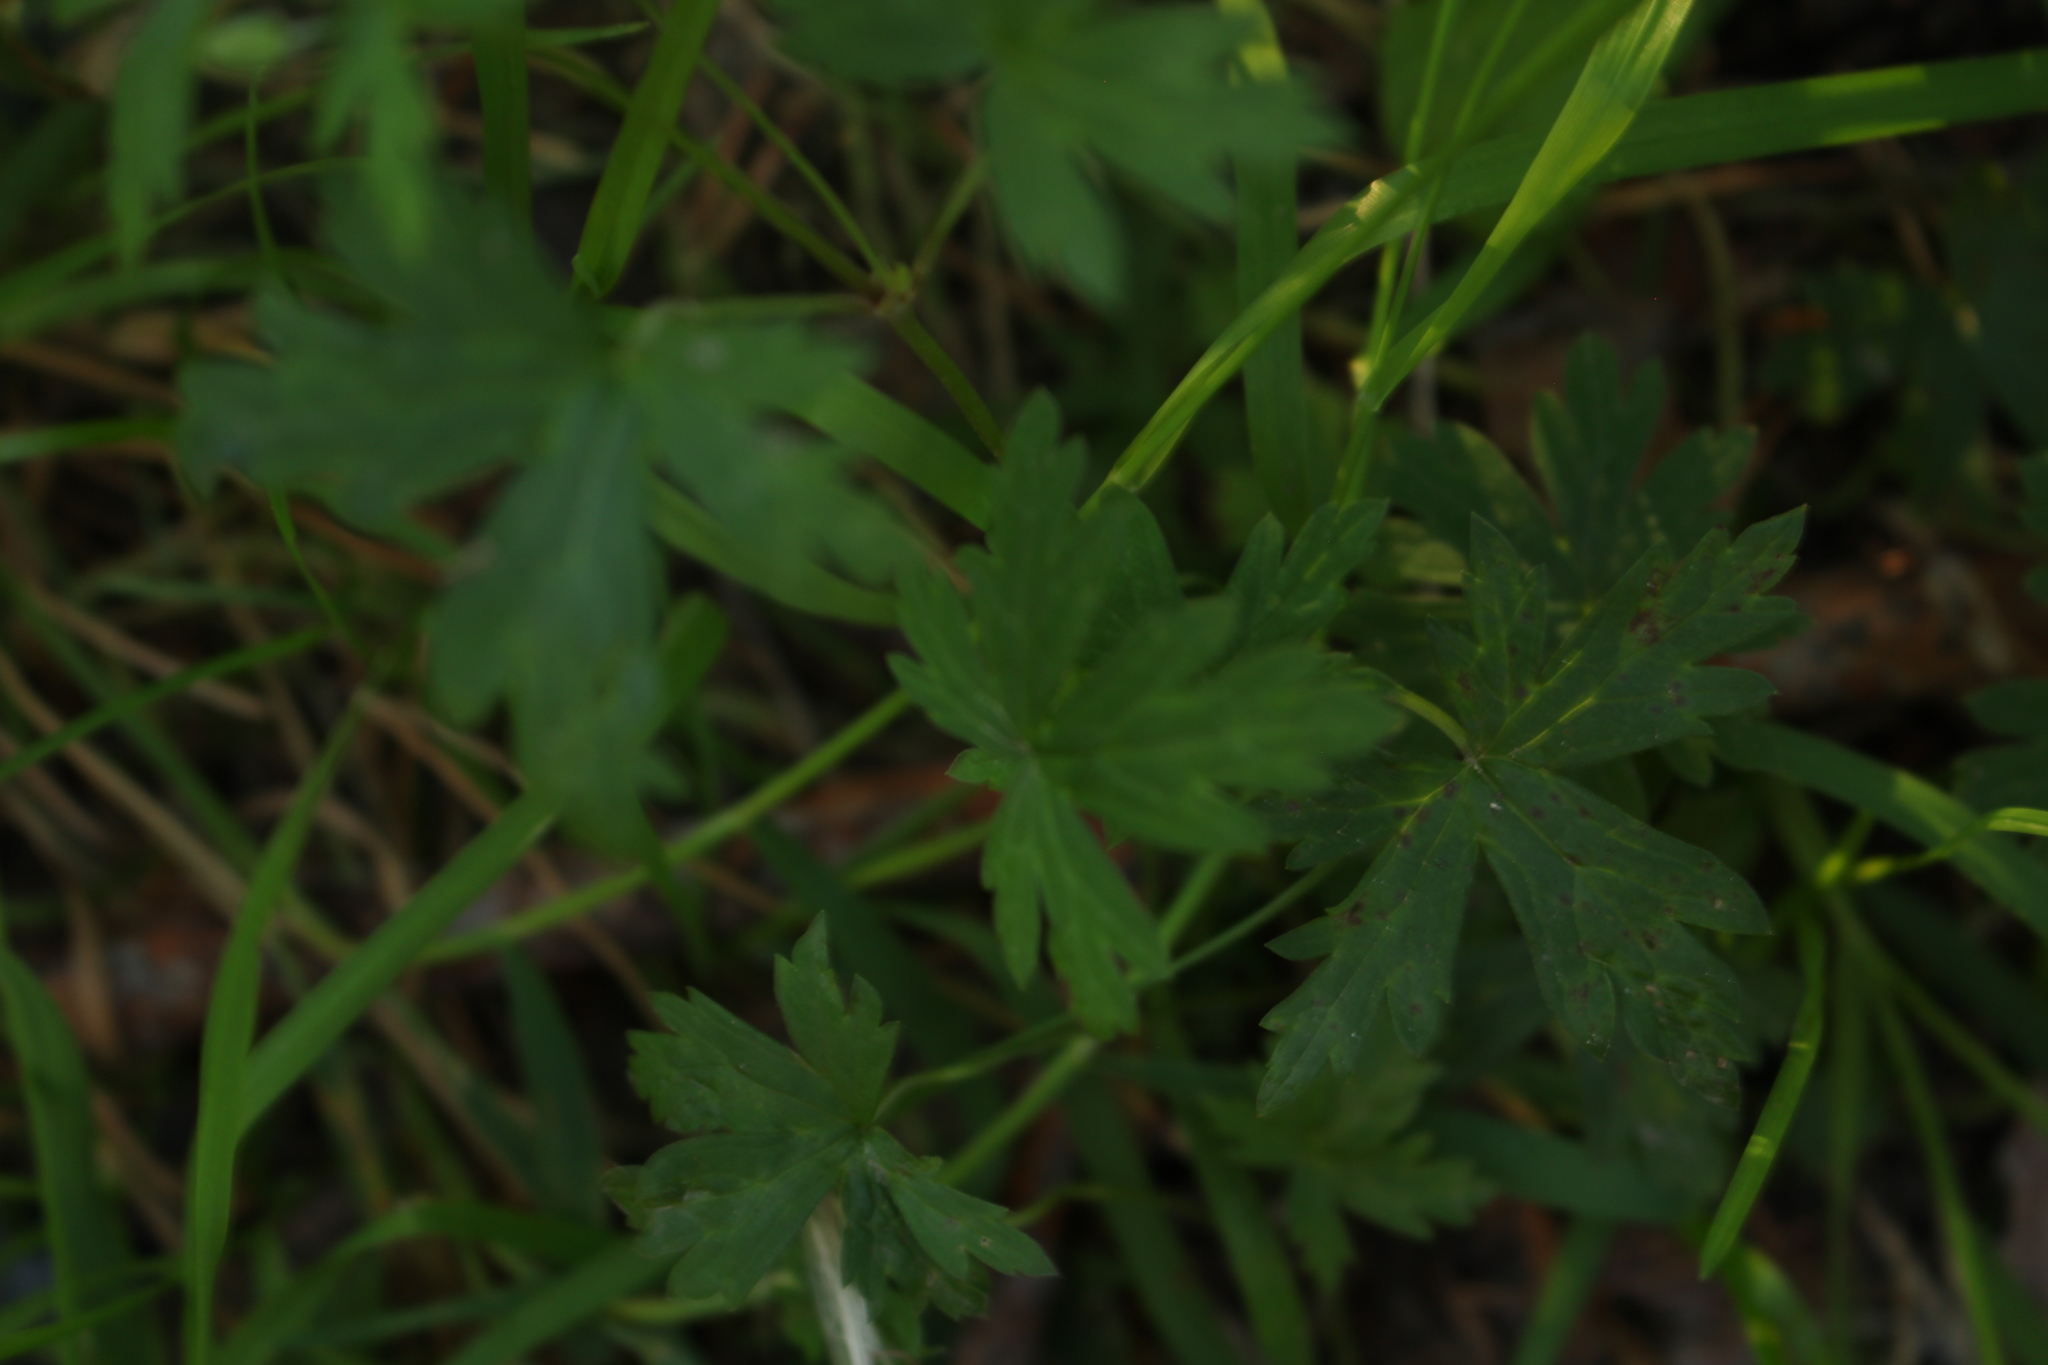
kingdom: Plantae
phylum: Tracheophyta
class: Magnoliopsida
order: Geraniales
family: Geraniaceae
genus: Geranium
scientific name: Geranium sibiricum
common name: Siberian crane's-bill
